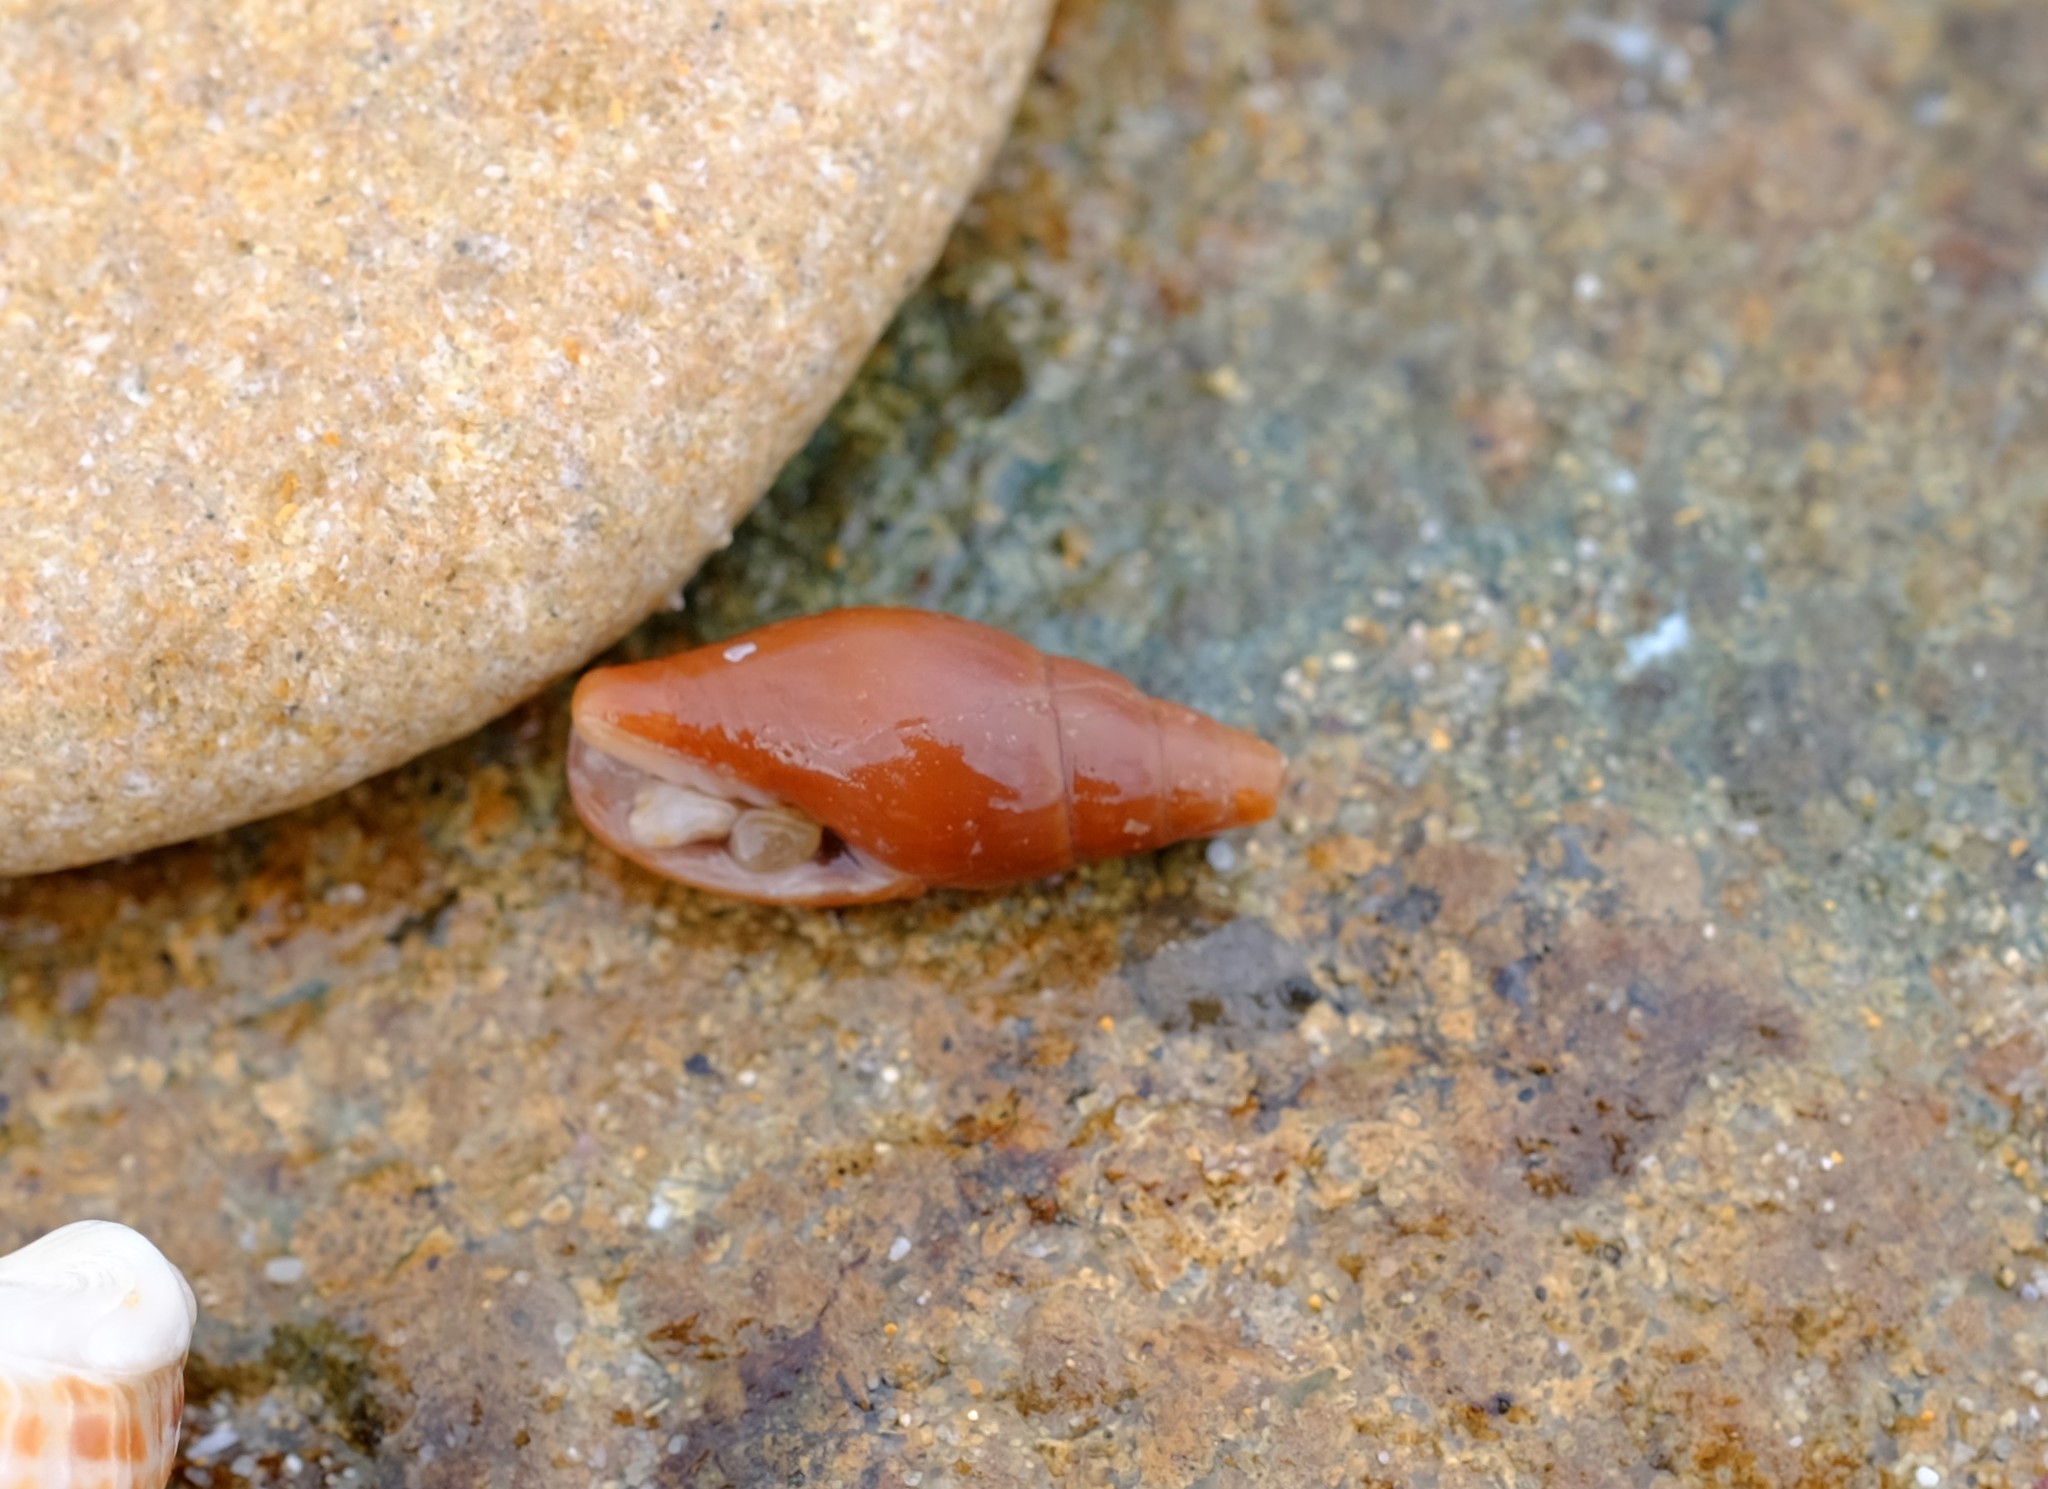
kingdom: Animalia
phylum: Mollusca
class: Gastropoda
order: Neogastropoda
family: Mitridae
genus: Isara
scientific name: Isara badia
